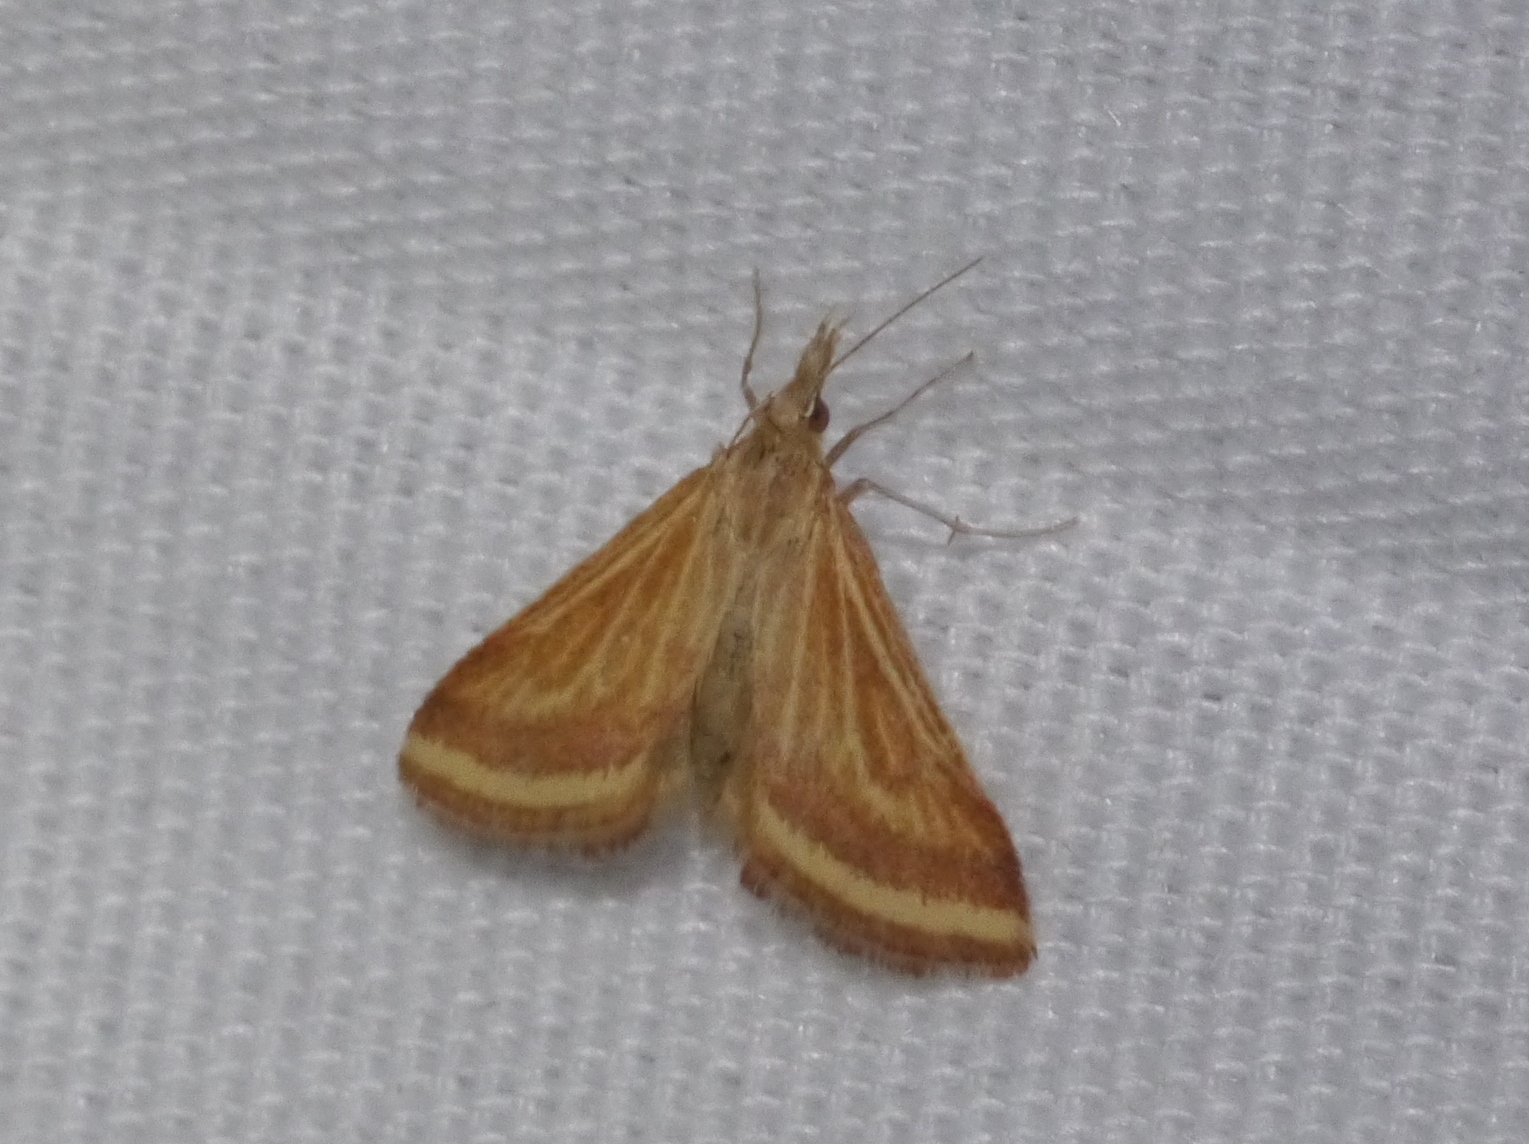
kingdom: Animalia
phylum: Arthropoda
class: Insecta
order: Lepidoptera
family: Crambidae
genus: Microtheoris
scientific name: Microtheoris ophionalis
